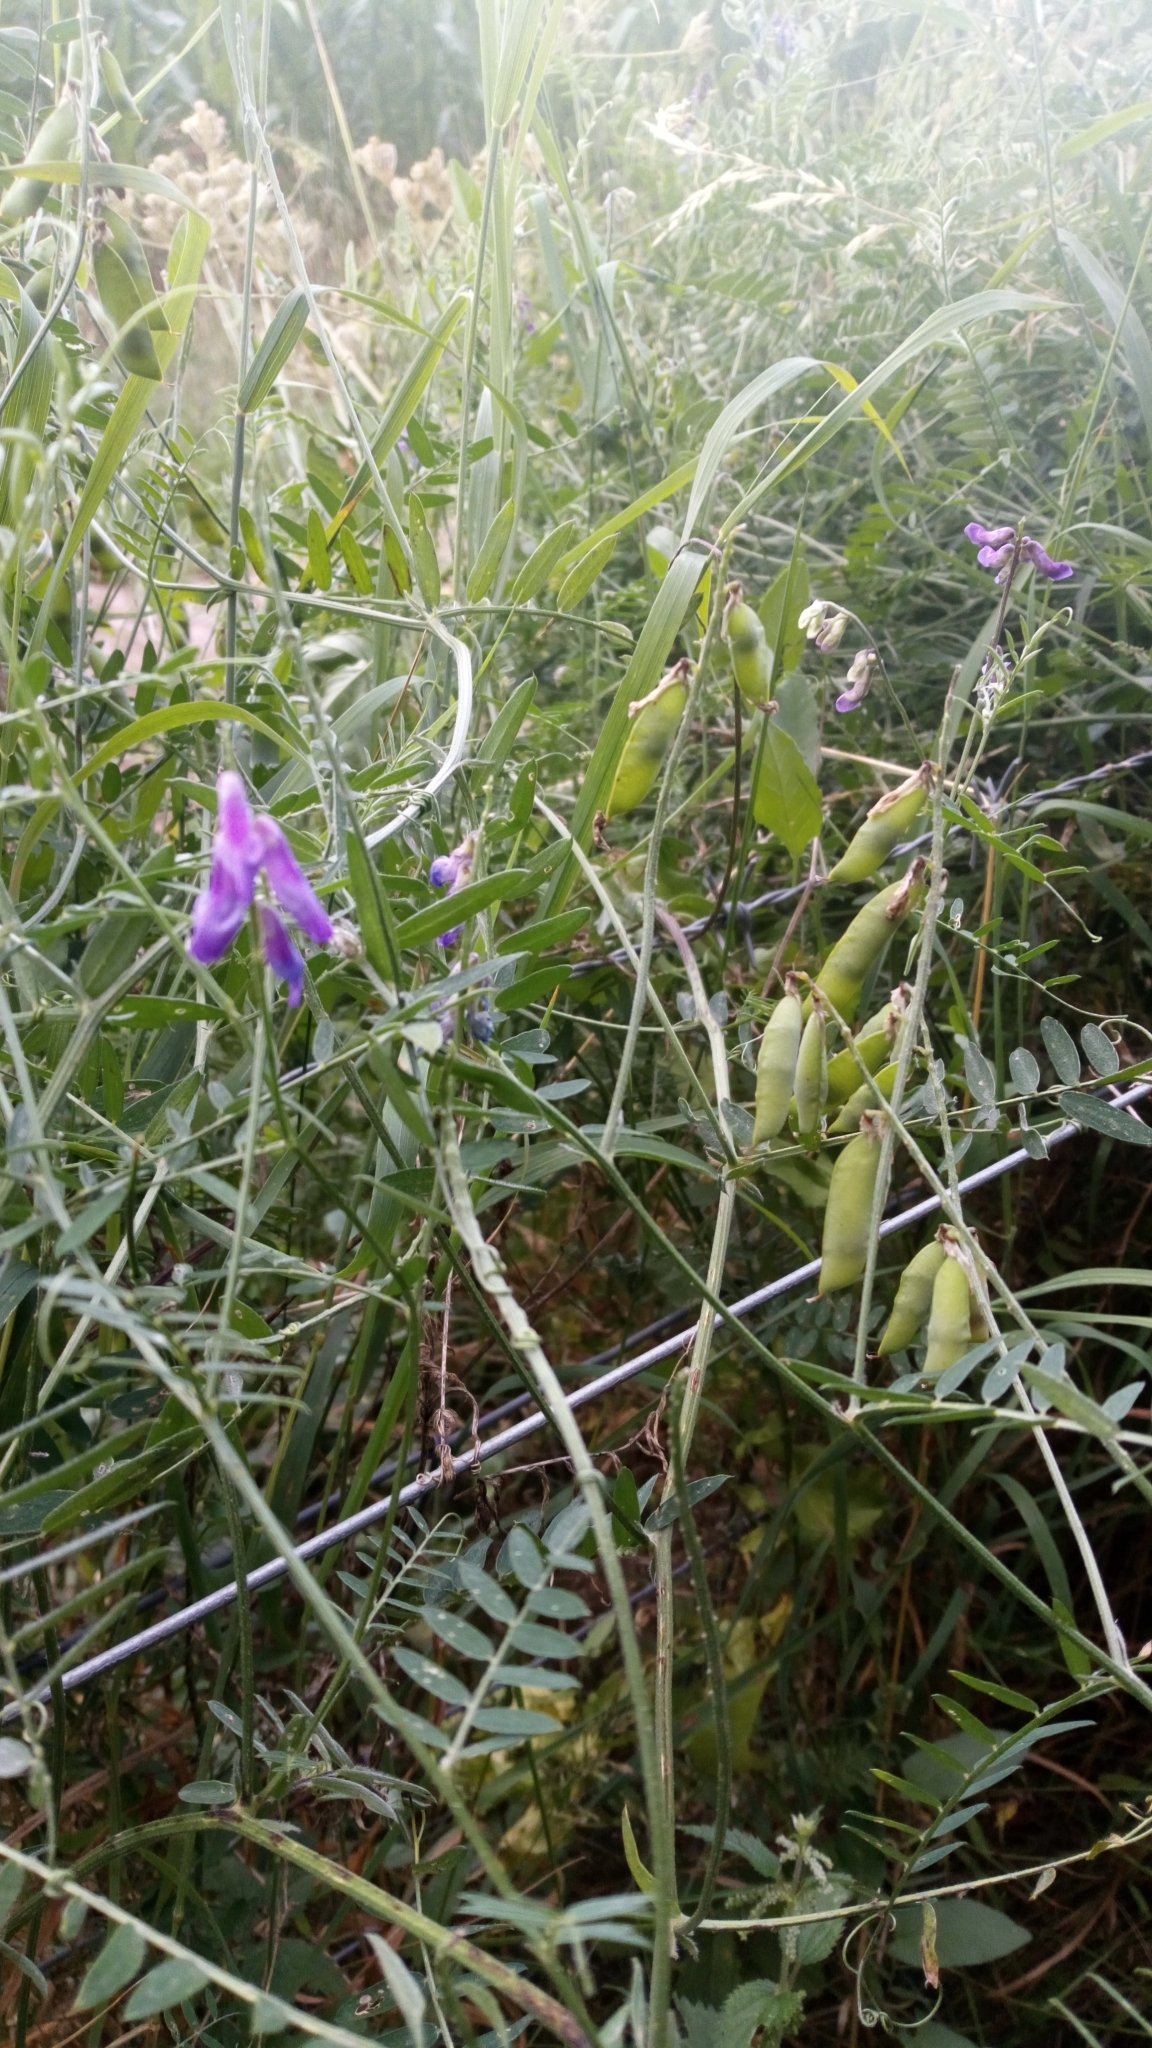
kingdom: Plantae
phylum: Tracheophyta
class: Magnoliopsida
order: Fabales
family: Fabaceae
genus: Vicia
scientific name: Vicia cracca
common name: Bird vetch
